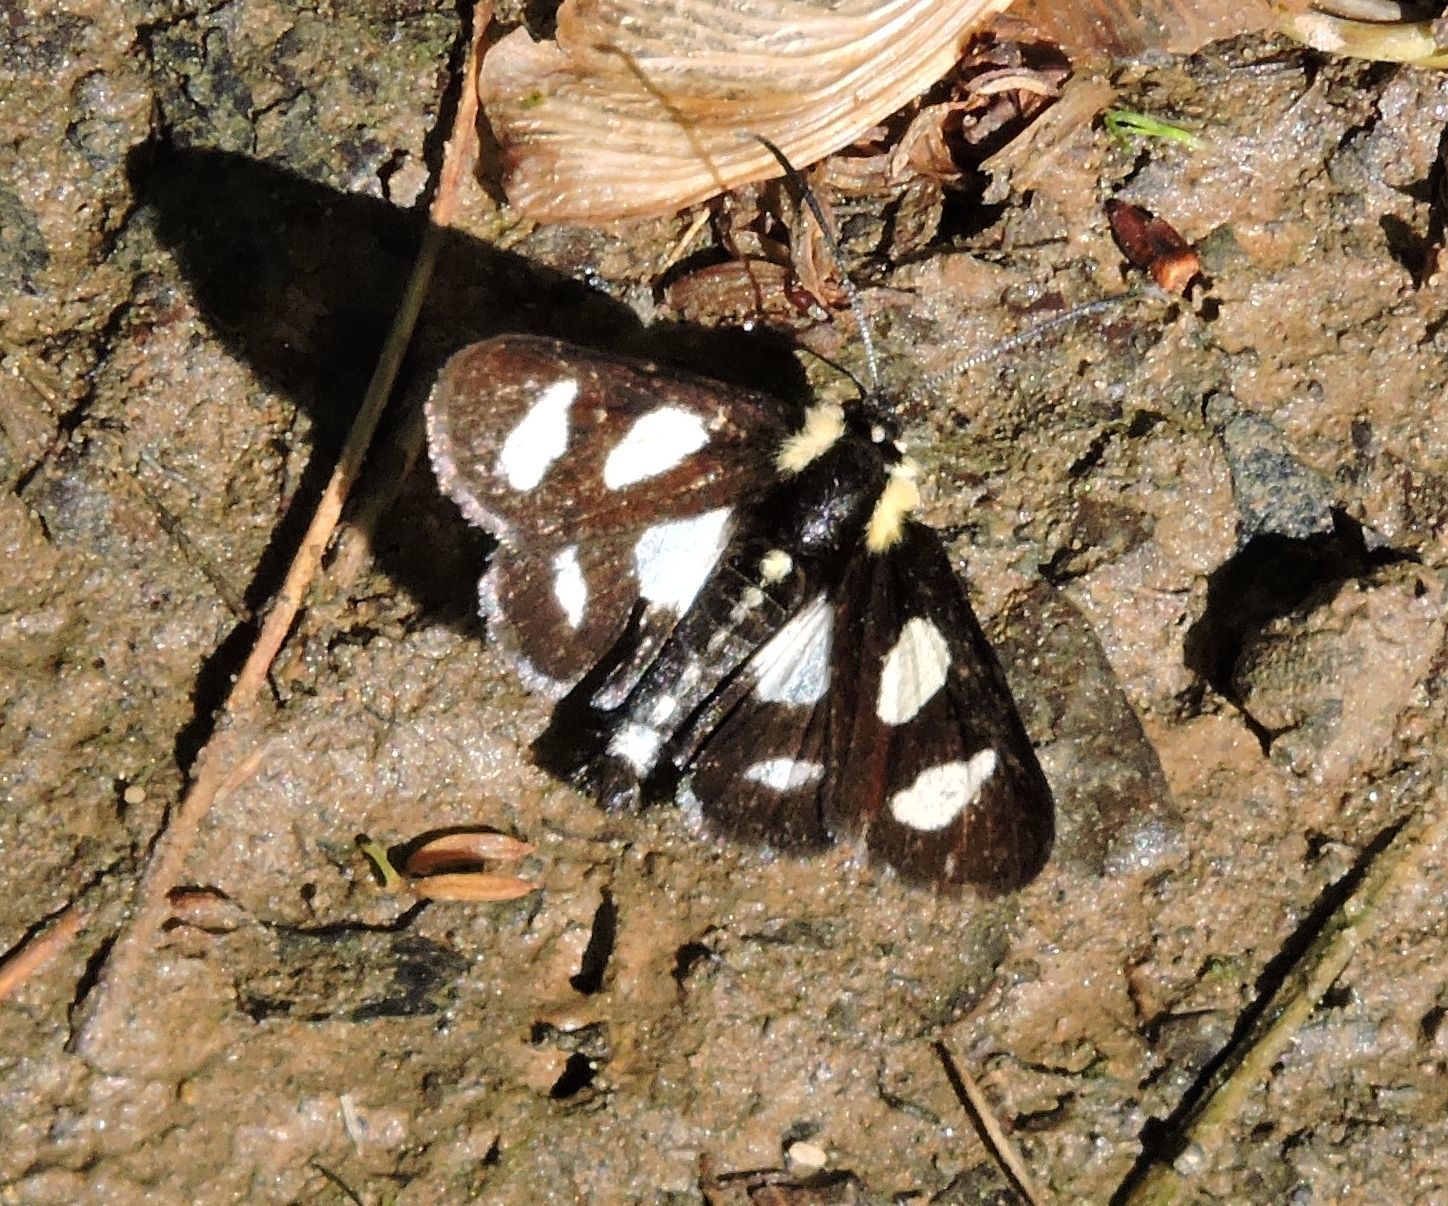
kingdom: Animalia
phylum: Arthropoda
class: Insecta
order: Lepidoptera
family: Noctuidae
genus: Alypia
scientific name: Alypia octomaculata
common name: Eight-spotted forester
